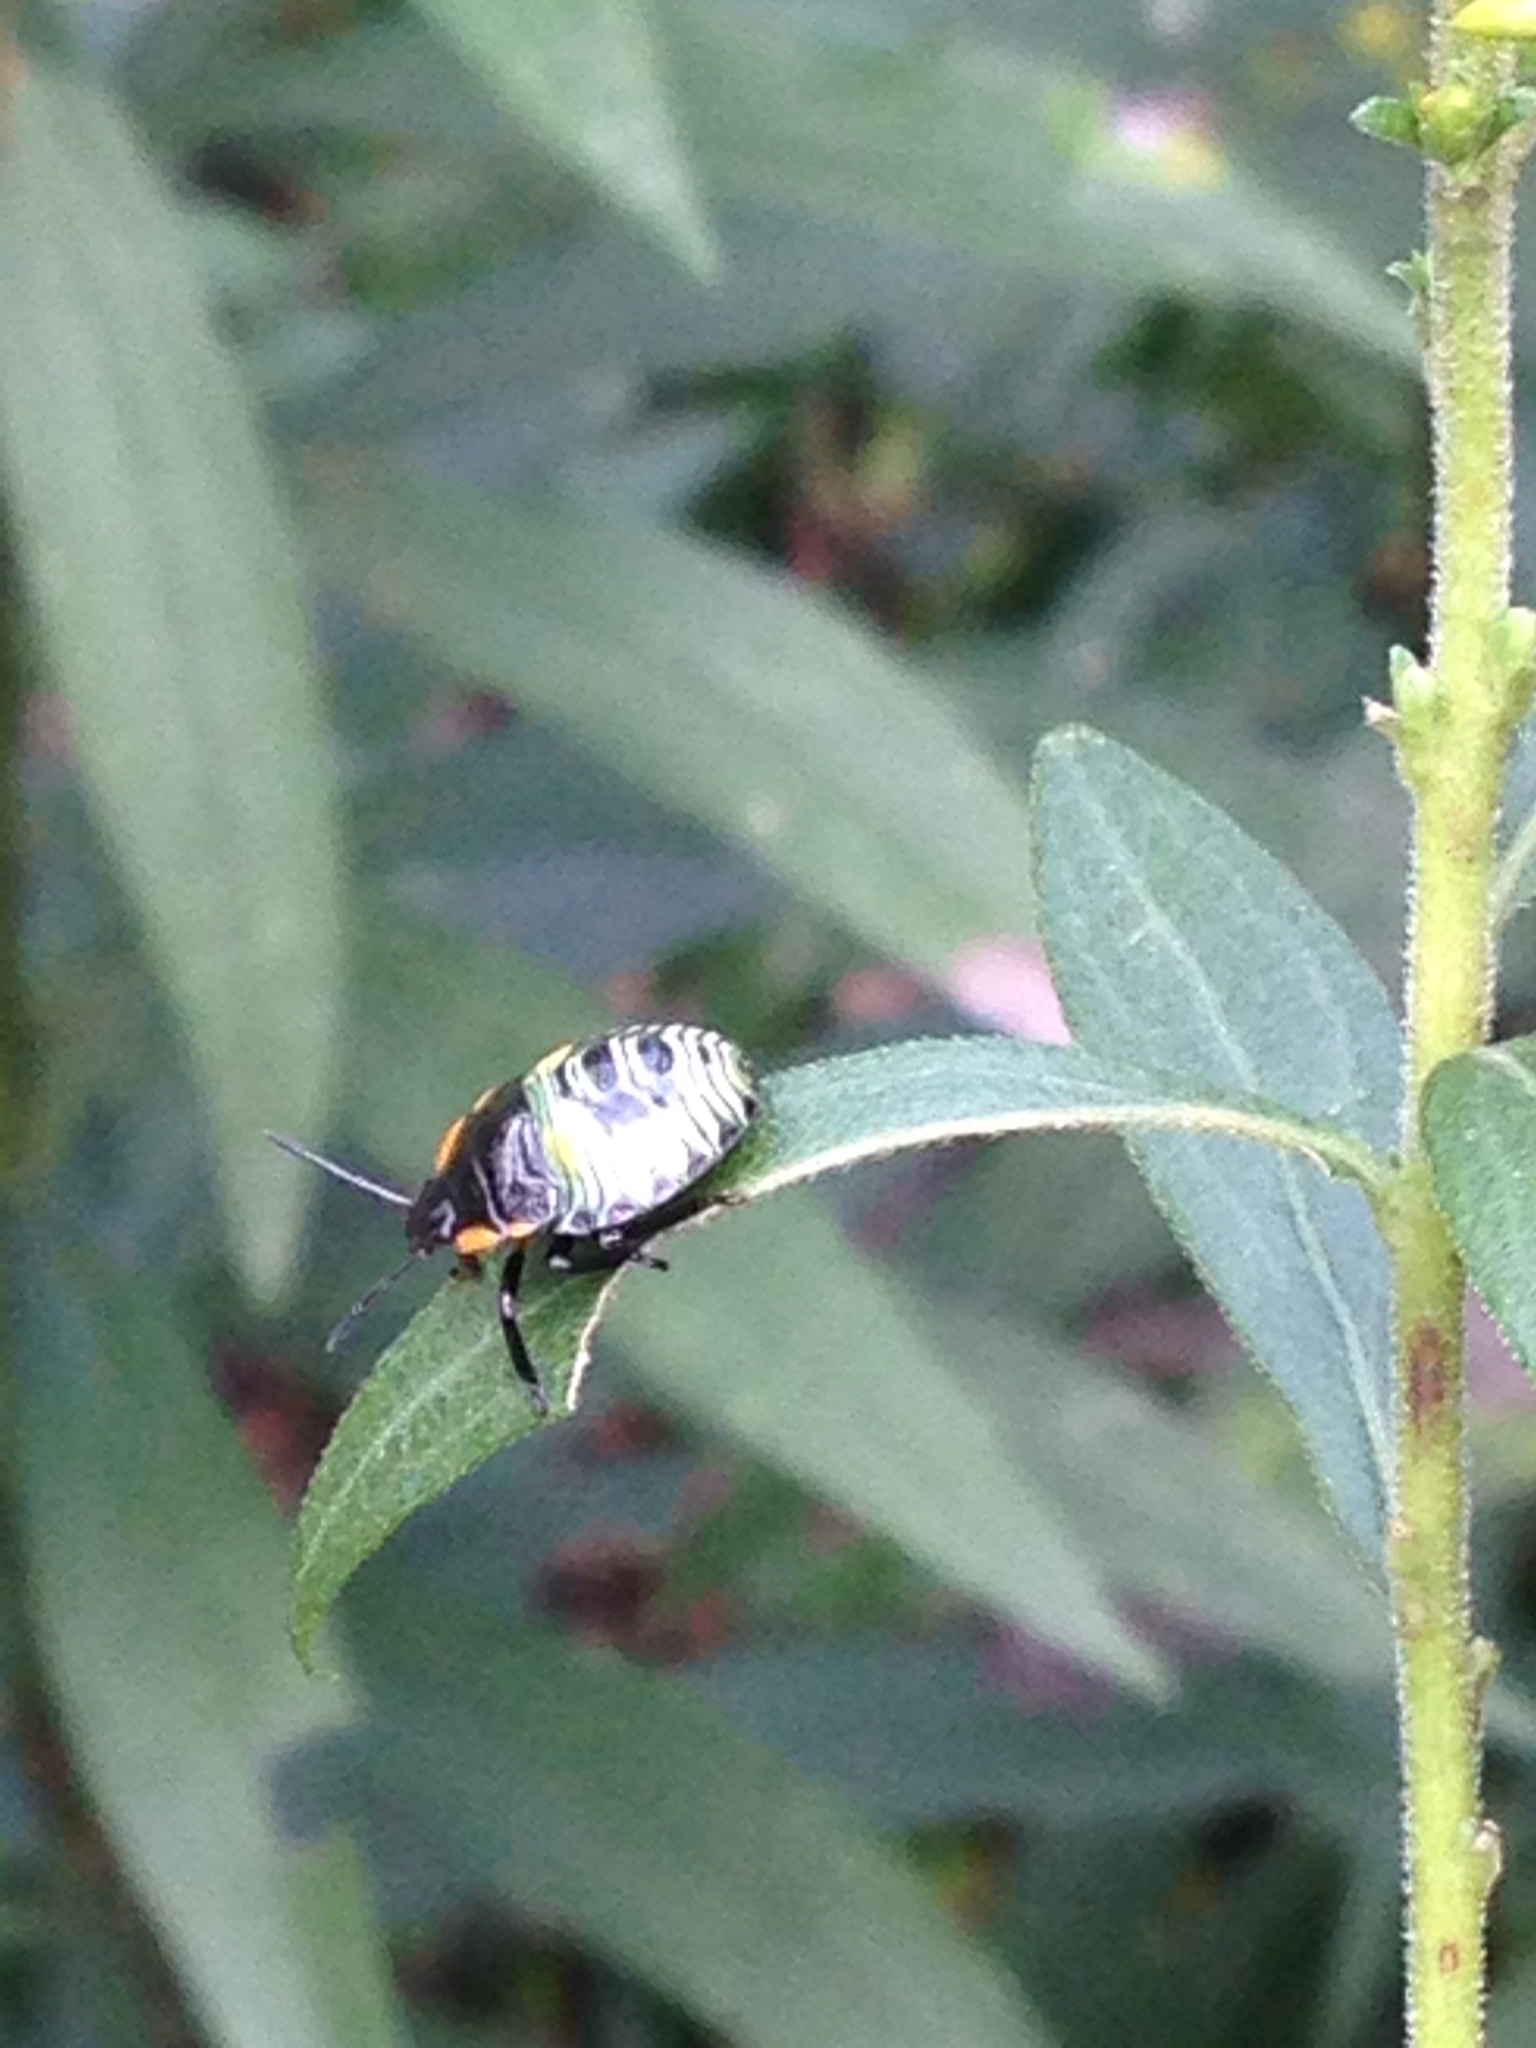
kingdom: Animalia
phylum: Arthropoda
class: Insecta
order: Hemiptera
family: Pentatomidae
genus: Chinavia
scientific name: Chinavia hilaris
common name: Green stink bug
